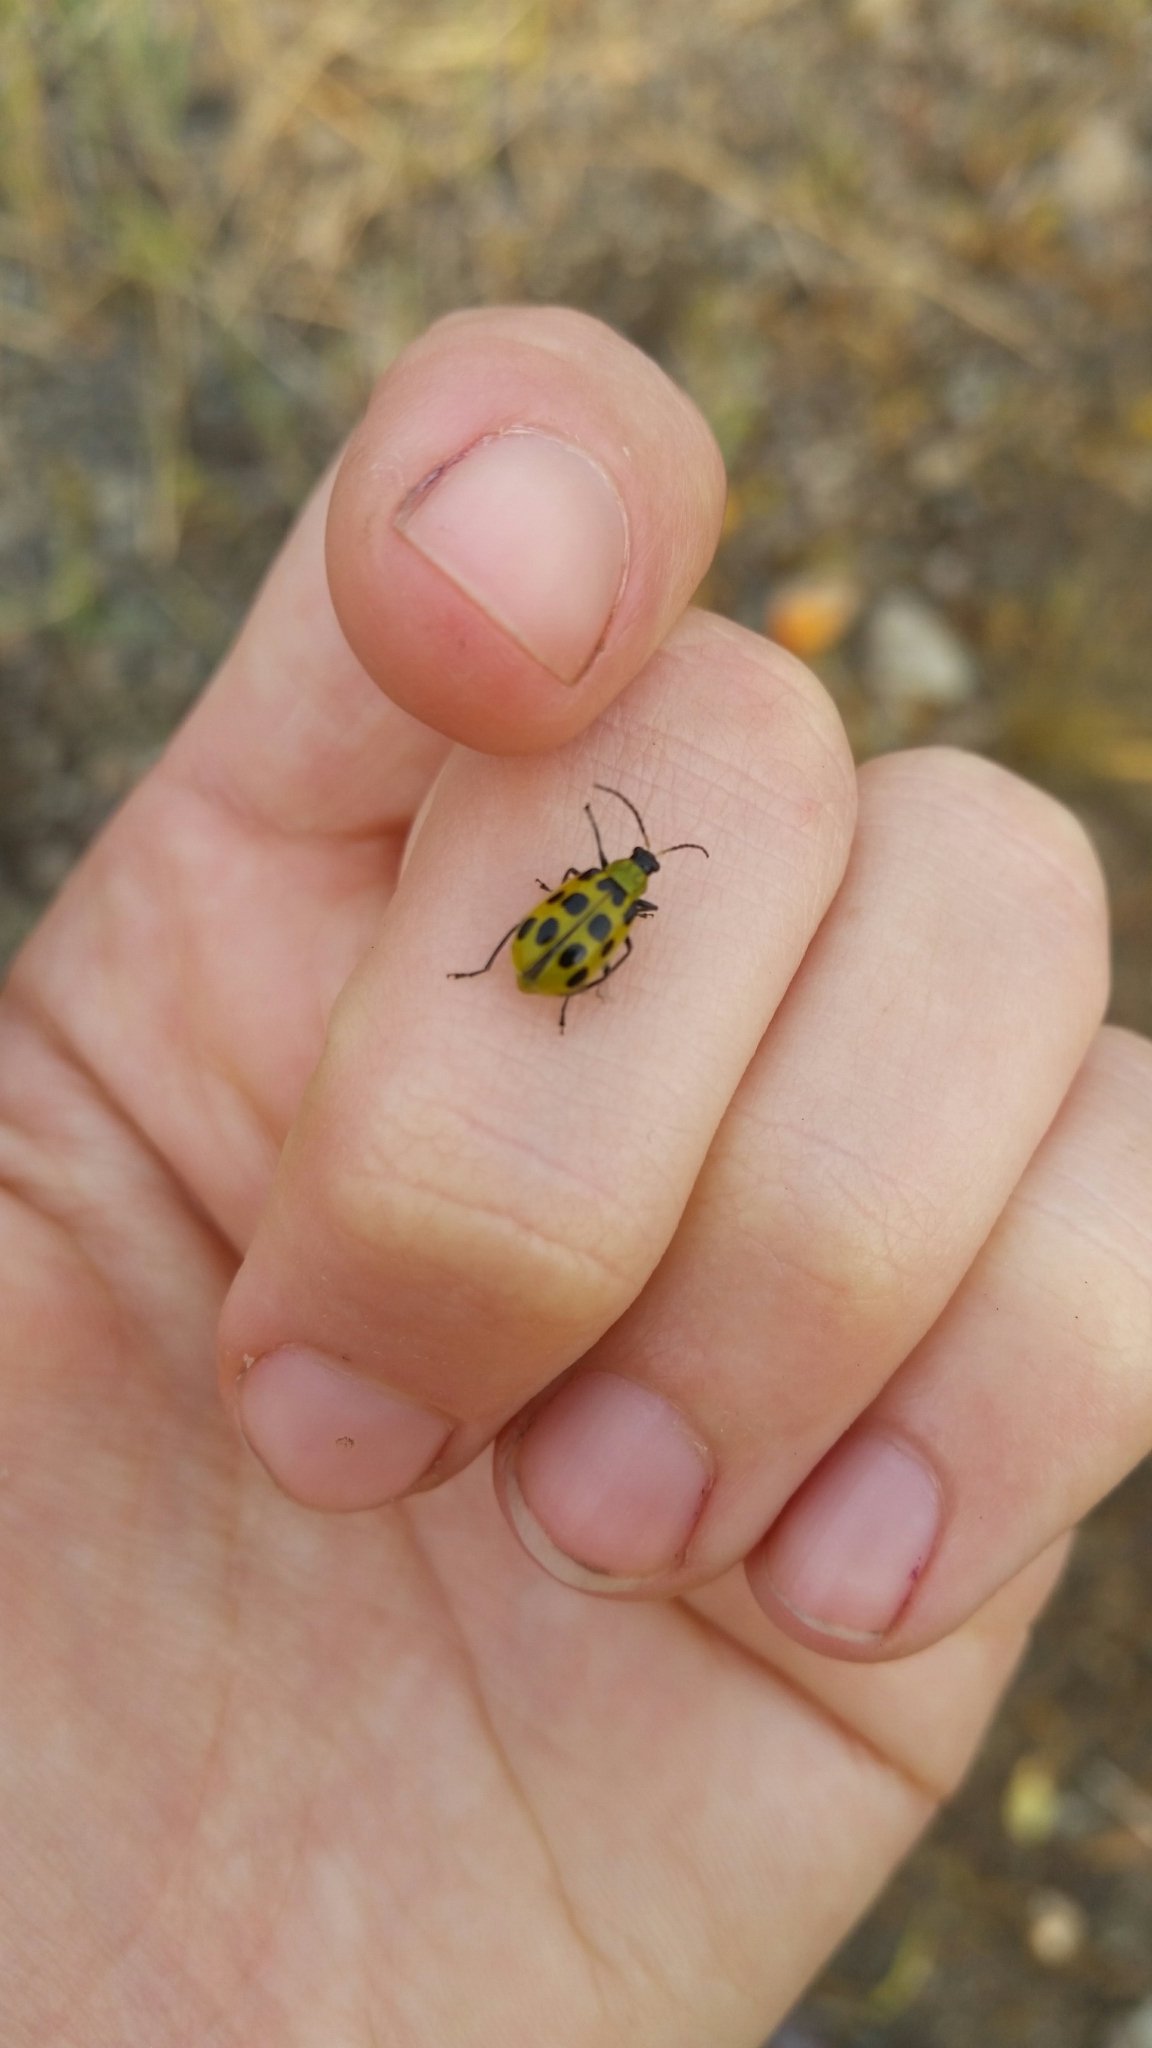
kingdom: Animalia
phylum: Arthropoda
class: Insecta
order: Coleoptera
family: Chrysomelidae
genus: Diabrotica
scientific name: Diabrotica undecimpunctata
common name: Spotted cucumber beetle
